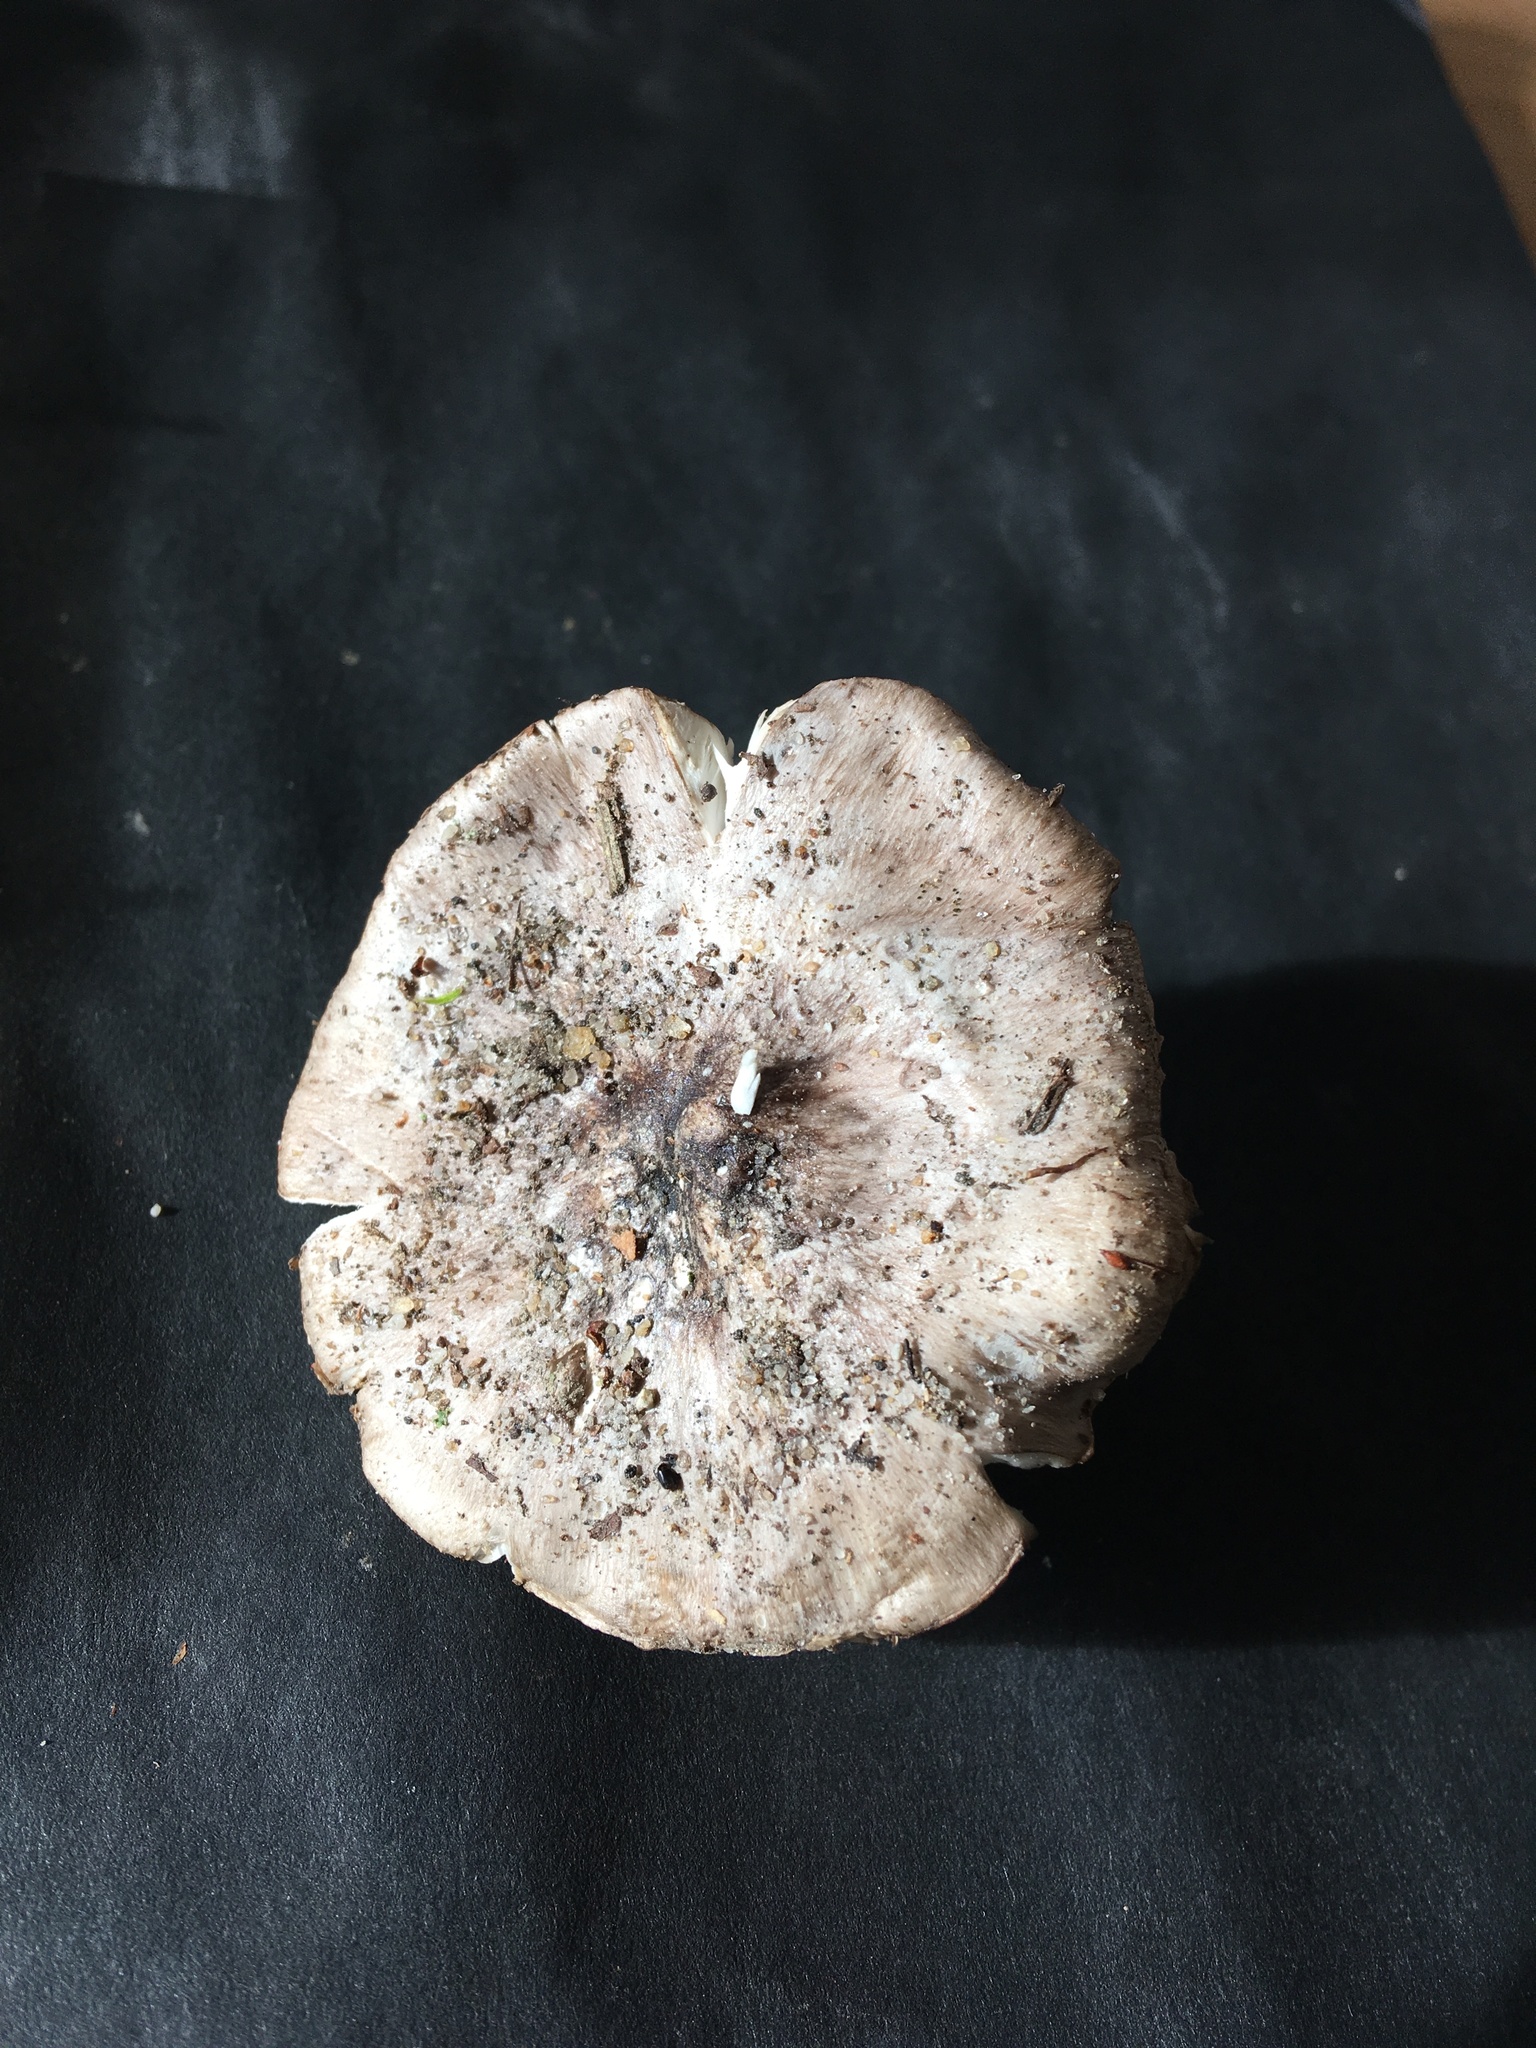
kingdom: Fungi
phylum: Basidiomycota
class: Agaricomycetes
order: Agaricales
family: Tricholomataceae
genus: Tricholoma
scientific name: Tricholoma niveipes
